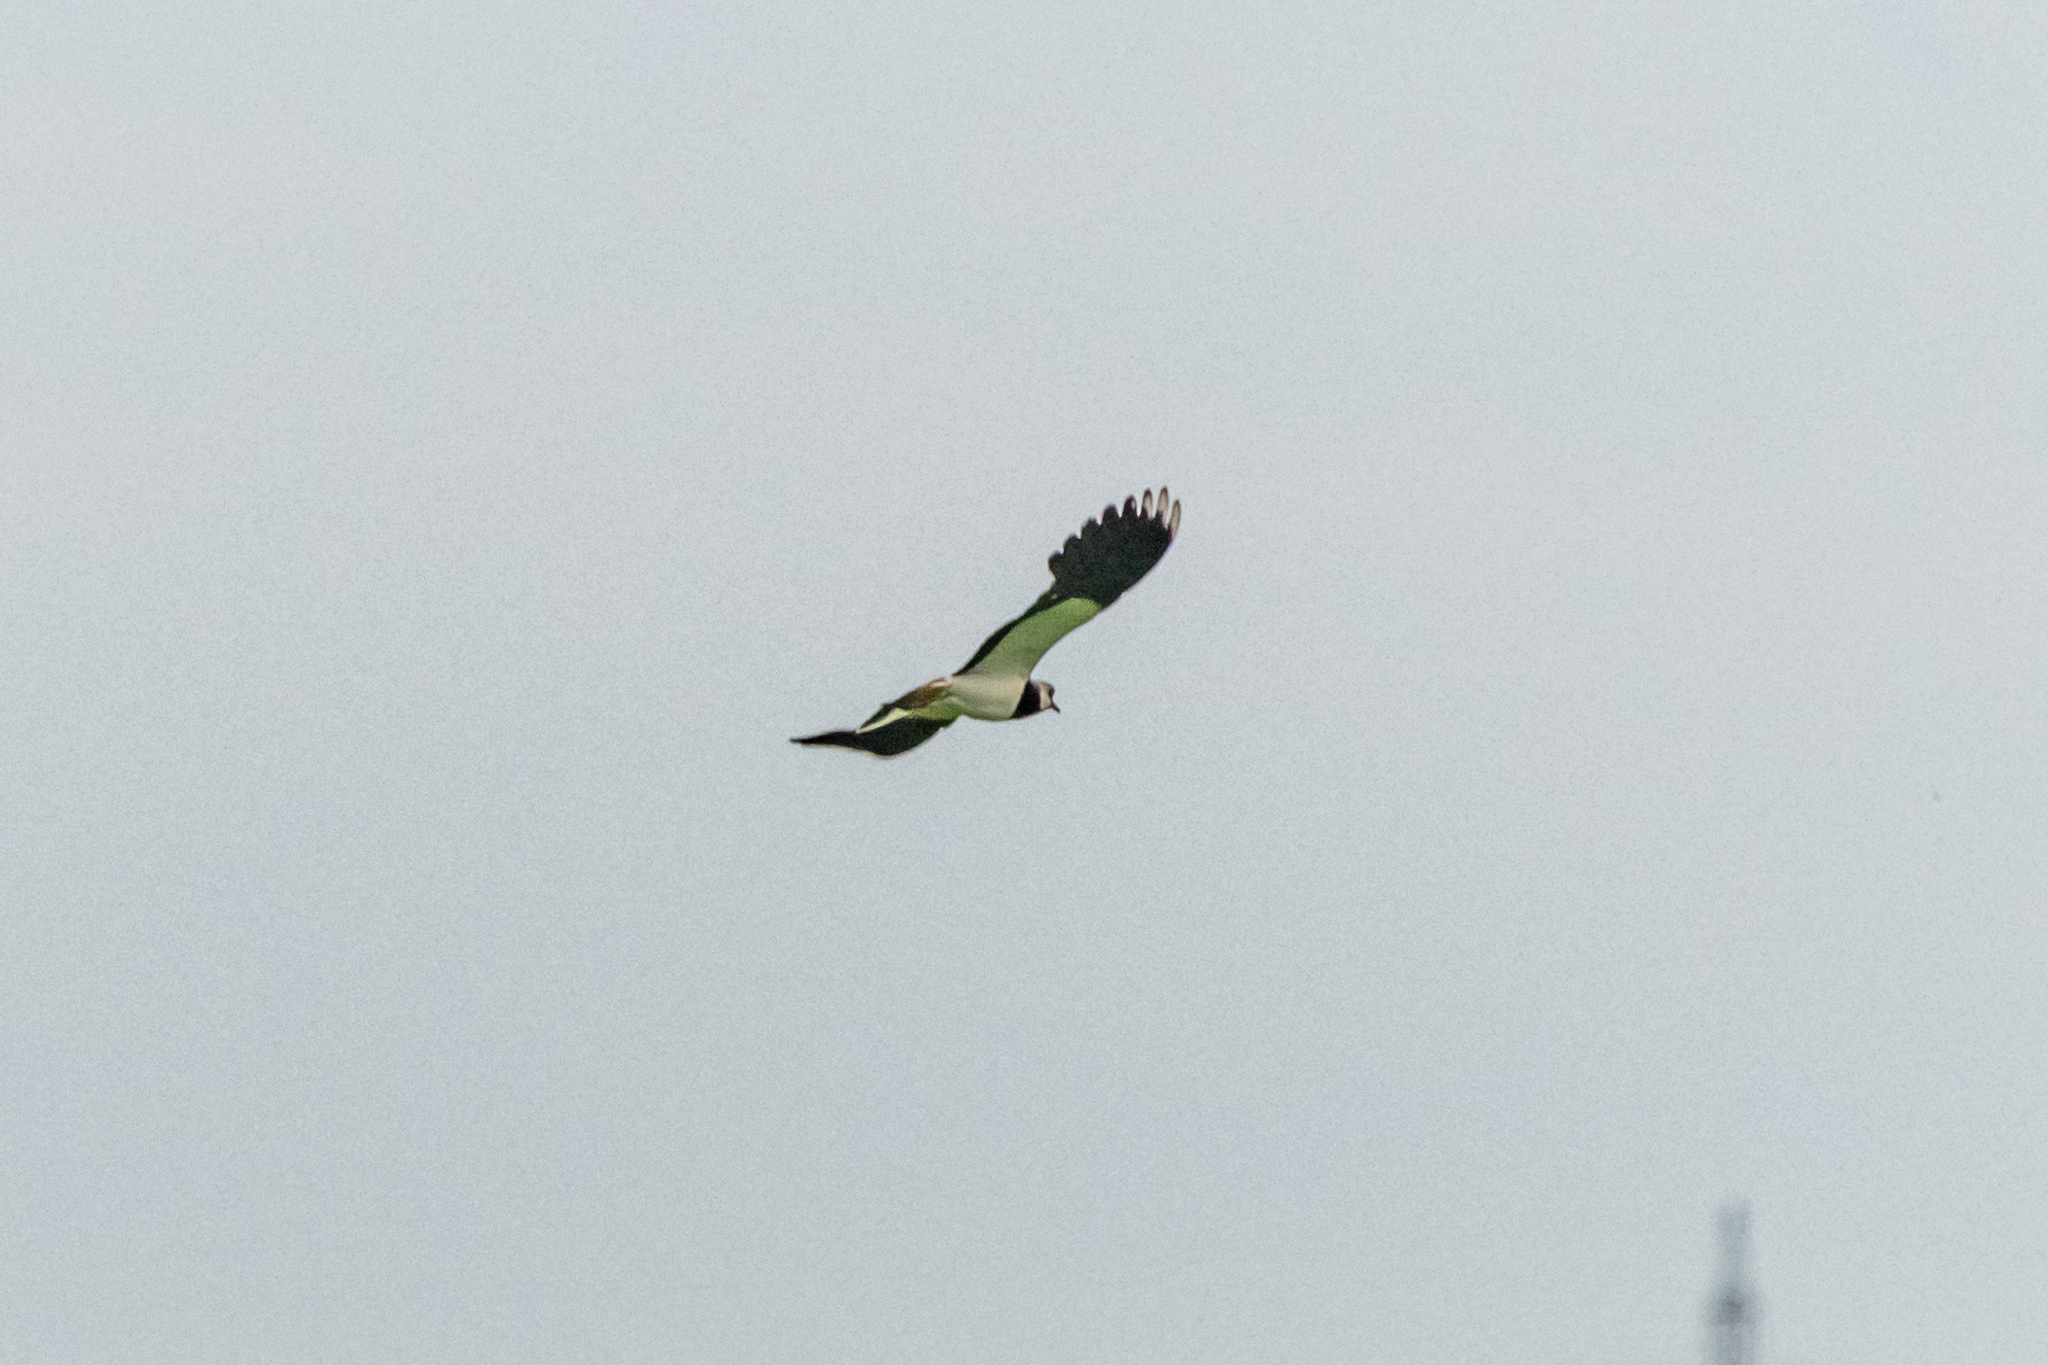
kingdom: Animalia
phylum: Chordata
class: Aves
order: Charadriiformes
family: Charadriidae
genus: Vanellus
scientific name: Vanellus vanellus
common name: Northern lapwing
